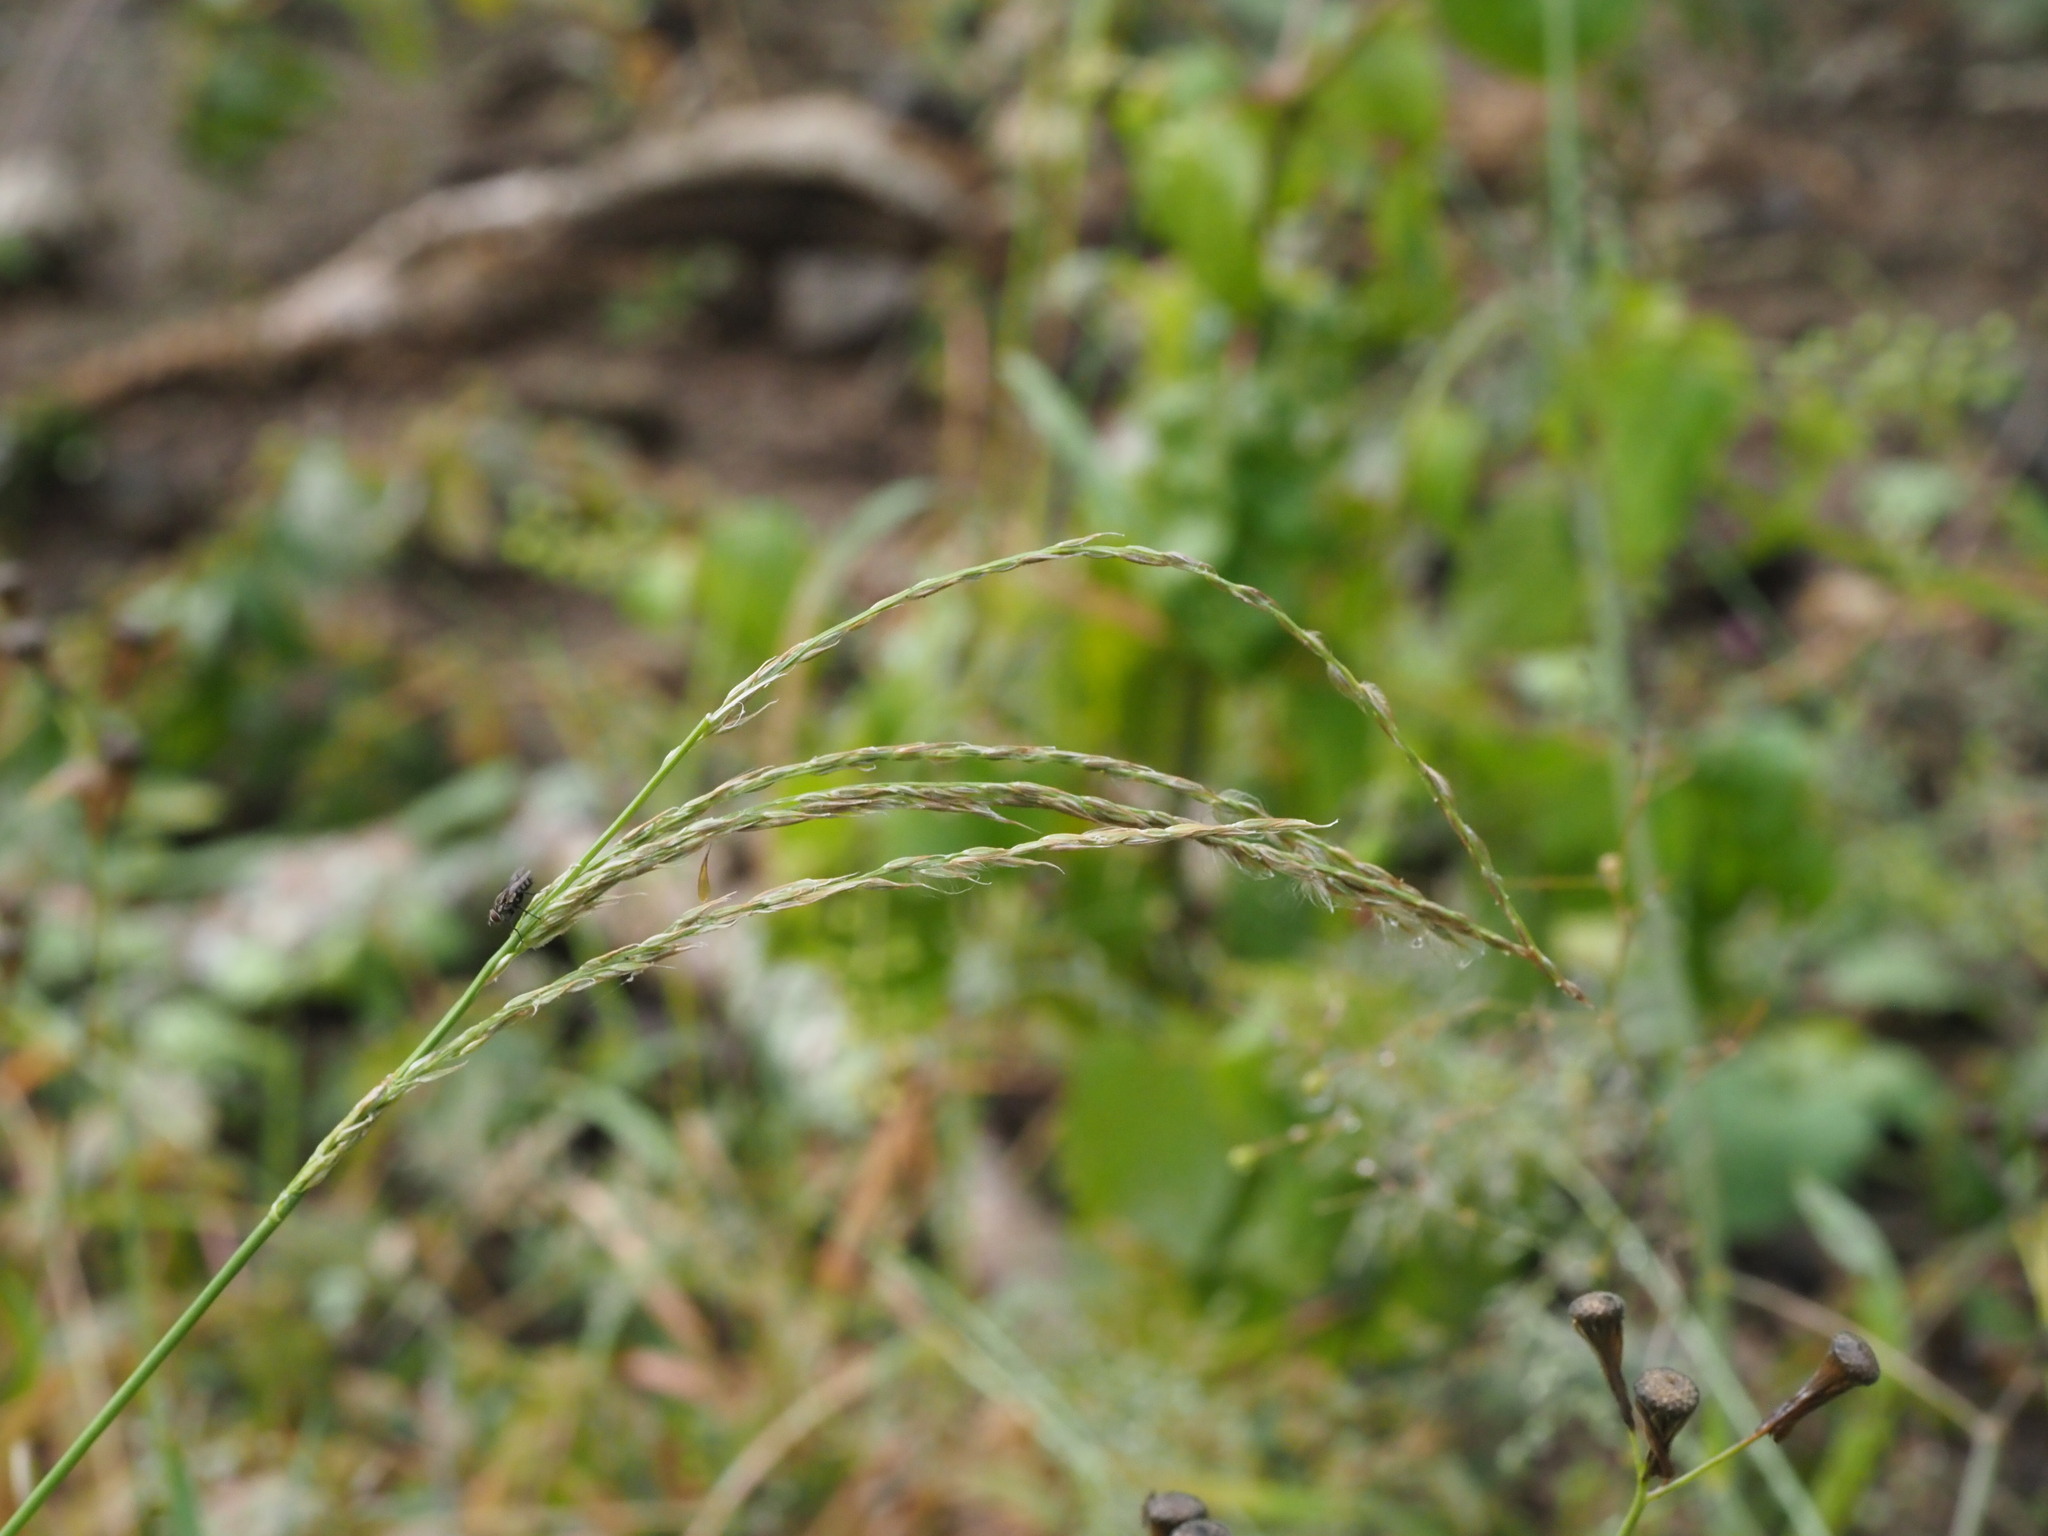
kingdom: Plantae
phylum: Tracheophyta
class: Liliopsida
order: Poales
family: Poaceae
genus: Digitaria
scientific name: Digitaria insularis
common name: Sourgrass
